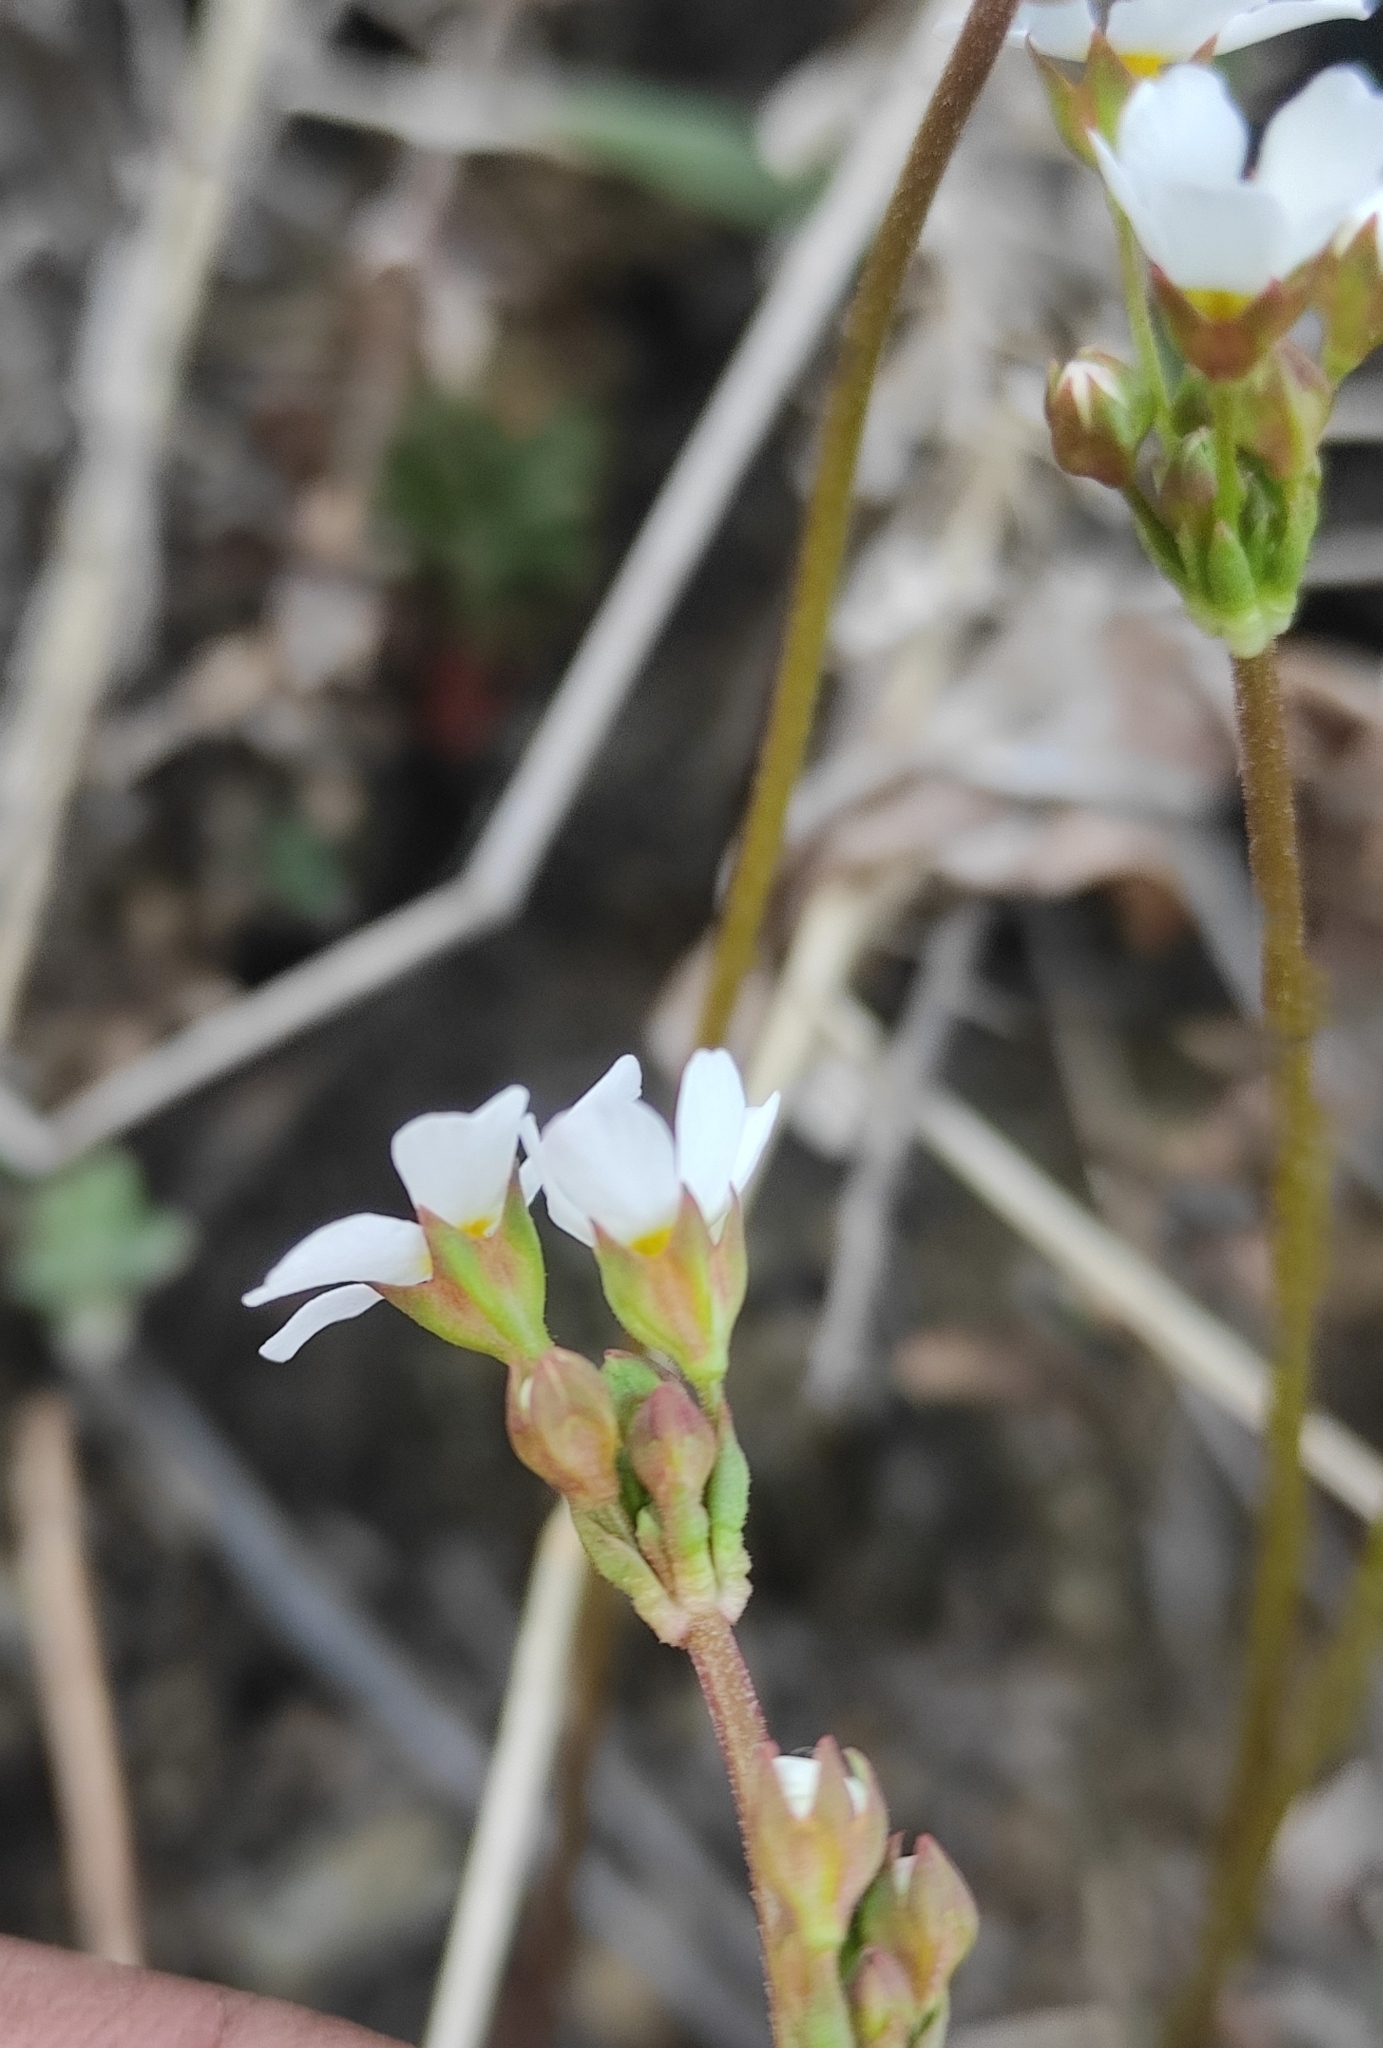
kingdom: Plantae
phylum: Tracheophyta
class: Magnoliopsida
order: Ericales
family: Primulaceae
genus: Androsace
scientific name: Androsace lactiflora
